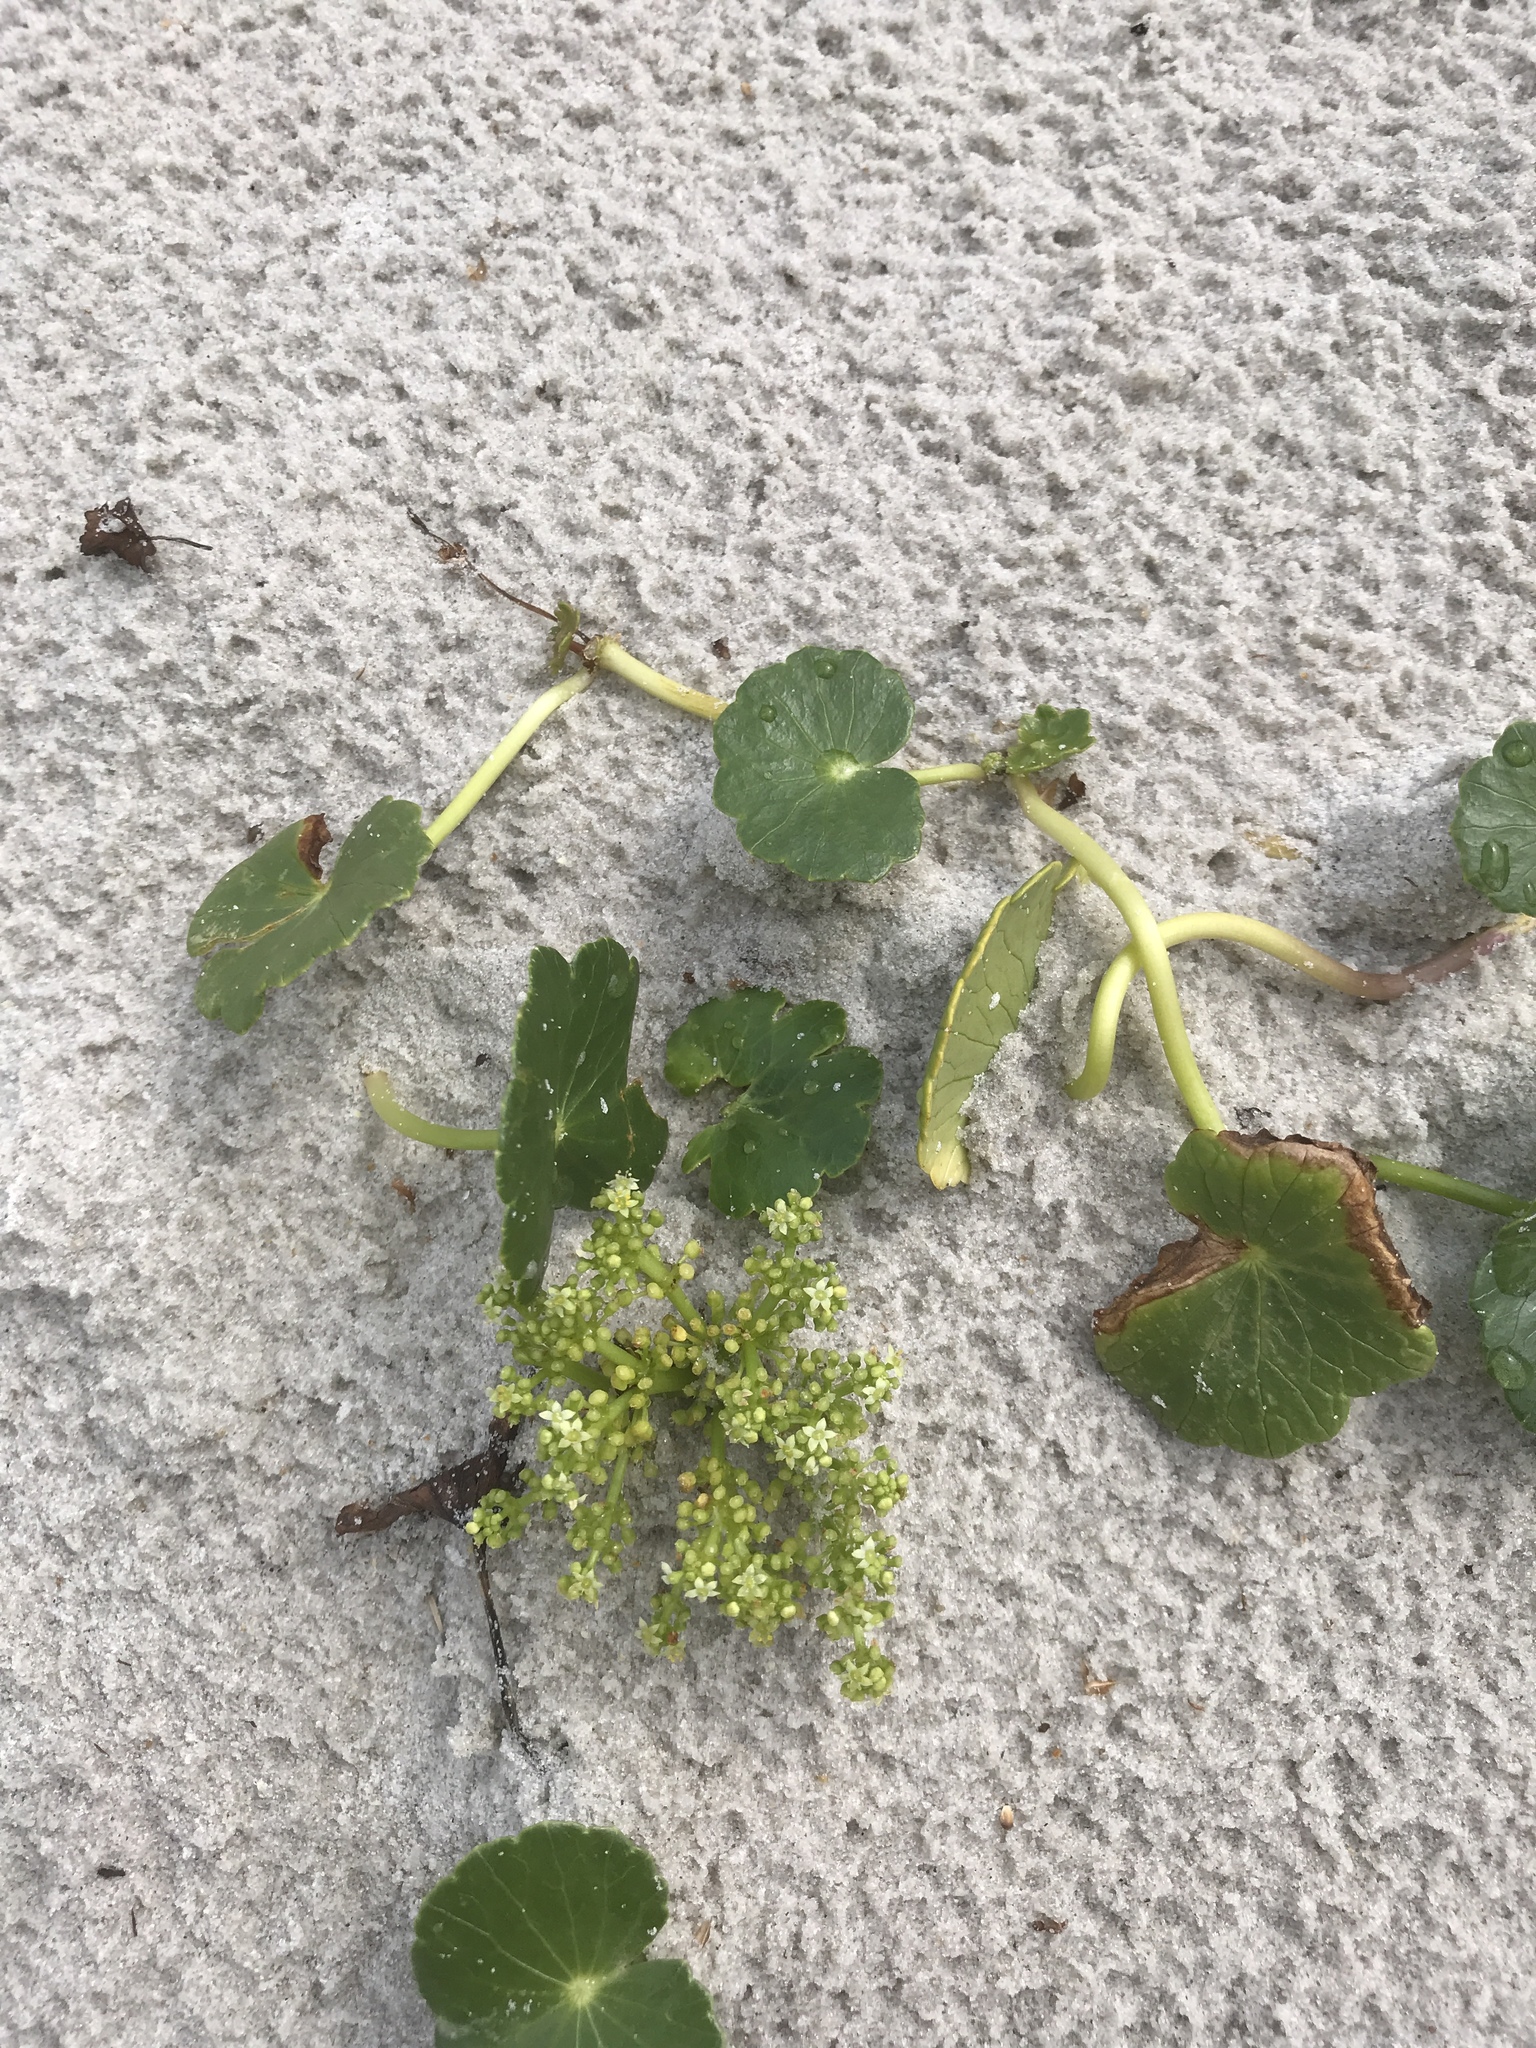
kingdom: Plantae
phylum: Tracheophyta
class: Magnoliopsida
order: Apiales
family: Araliaceae
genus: Hydrocotyle
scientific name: Hydrocotyle bonariensis
